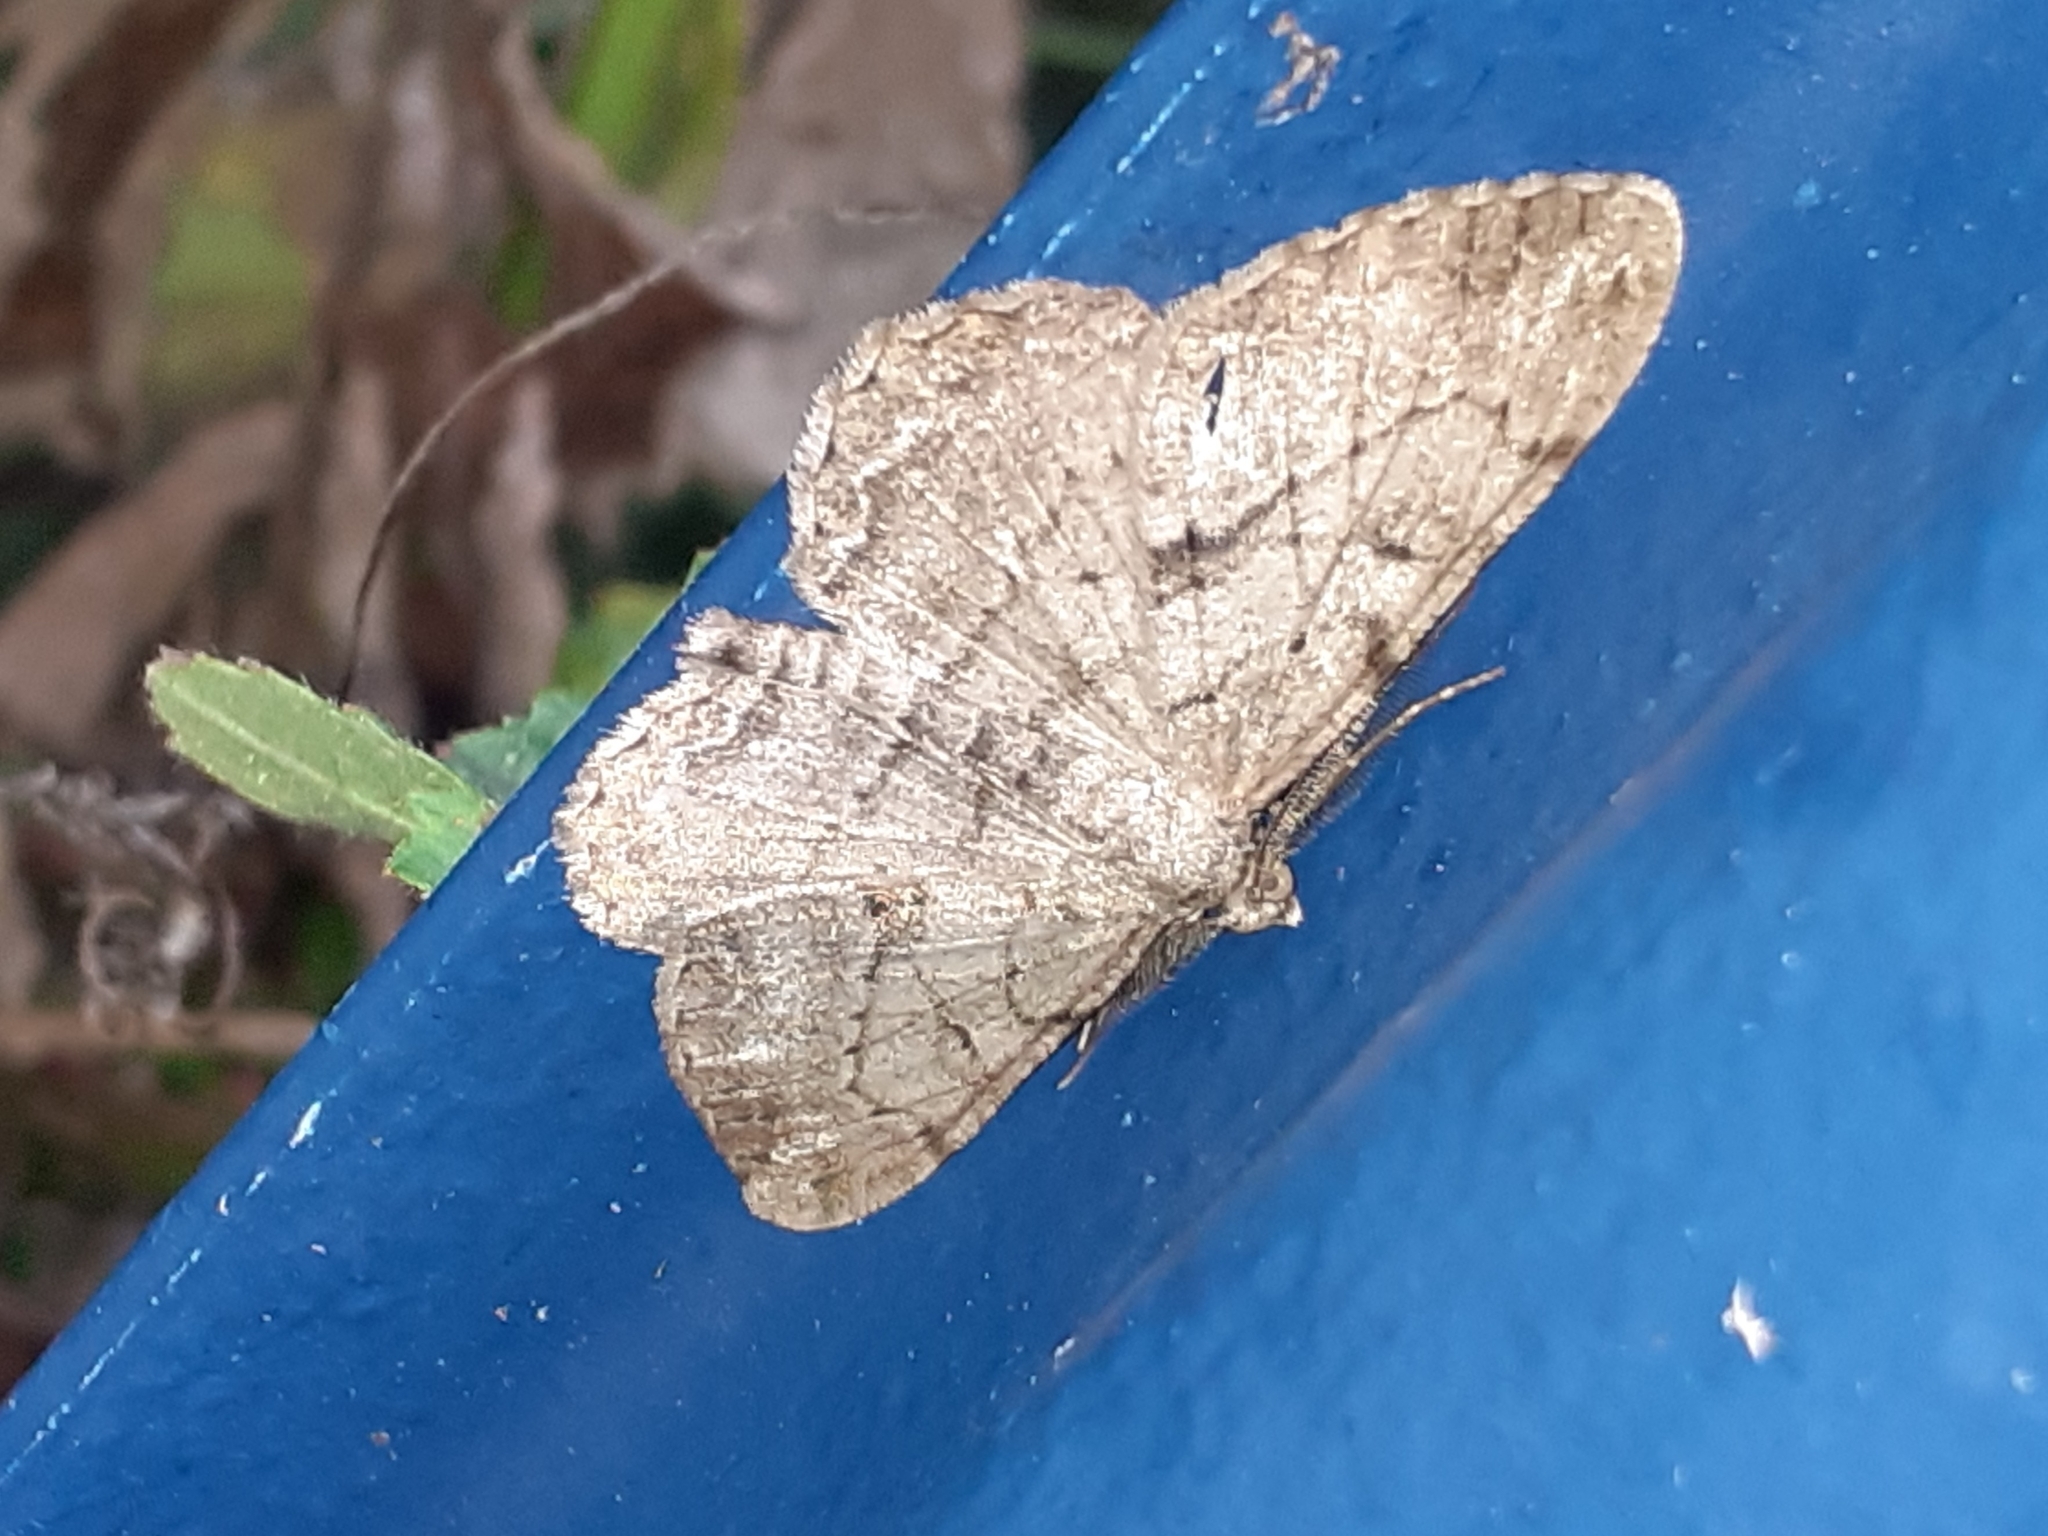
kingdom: Animalia
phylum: Arthropoda
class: Insecta
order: Lepidoptera
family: Geometridae
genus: Peribatodes
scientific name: Peribatodes rhomboidaria
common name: Willow beauty
